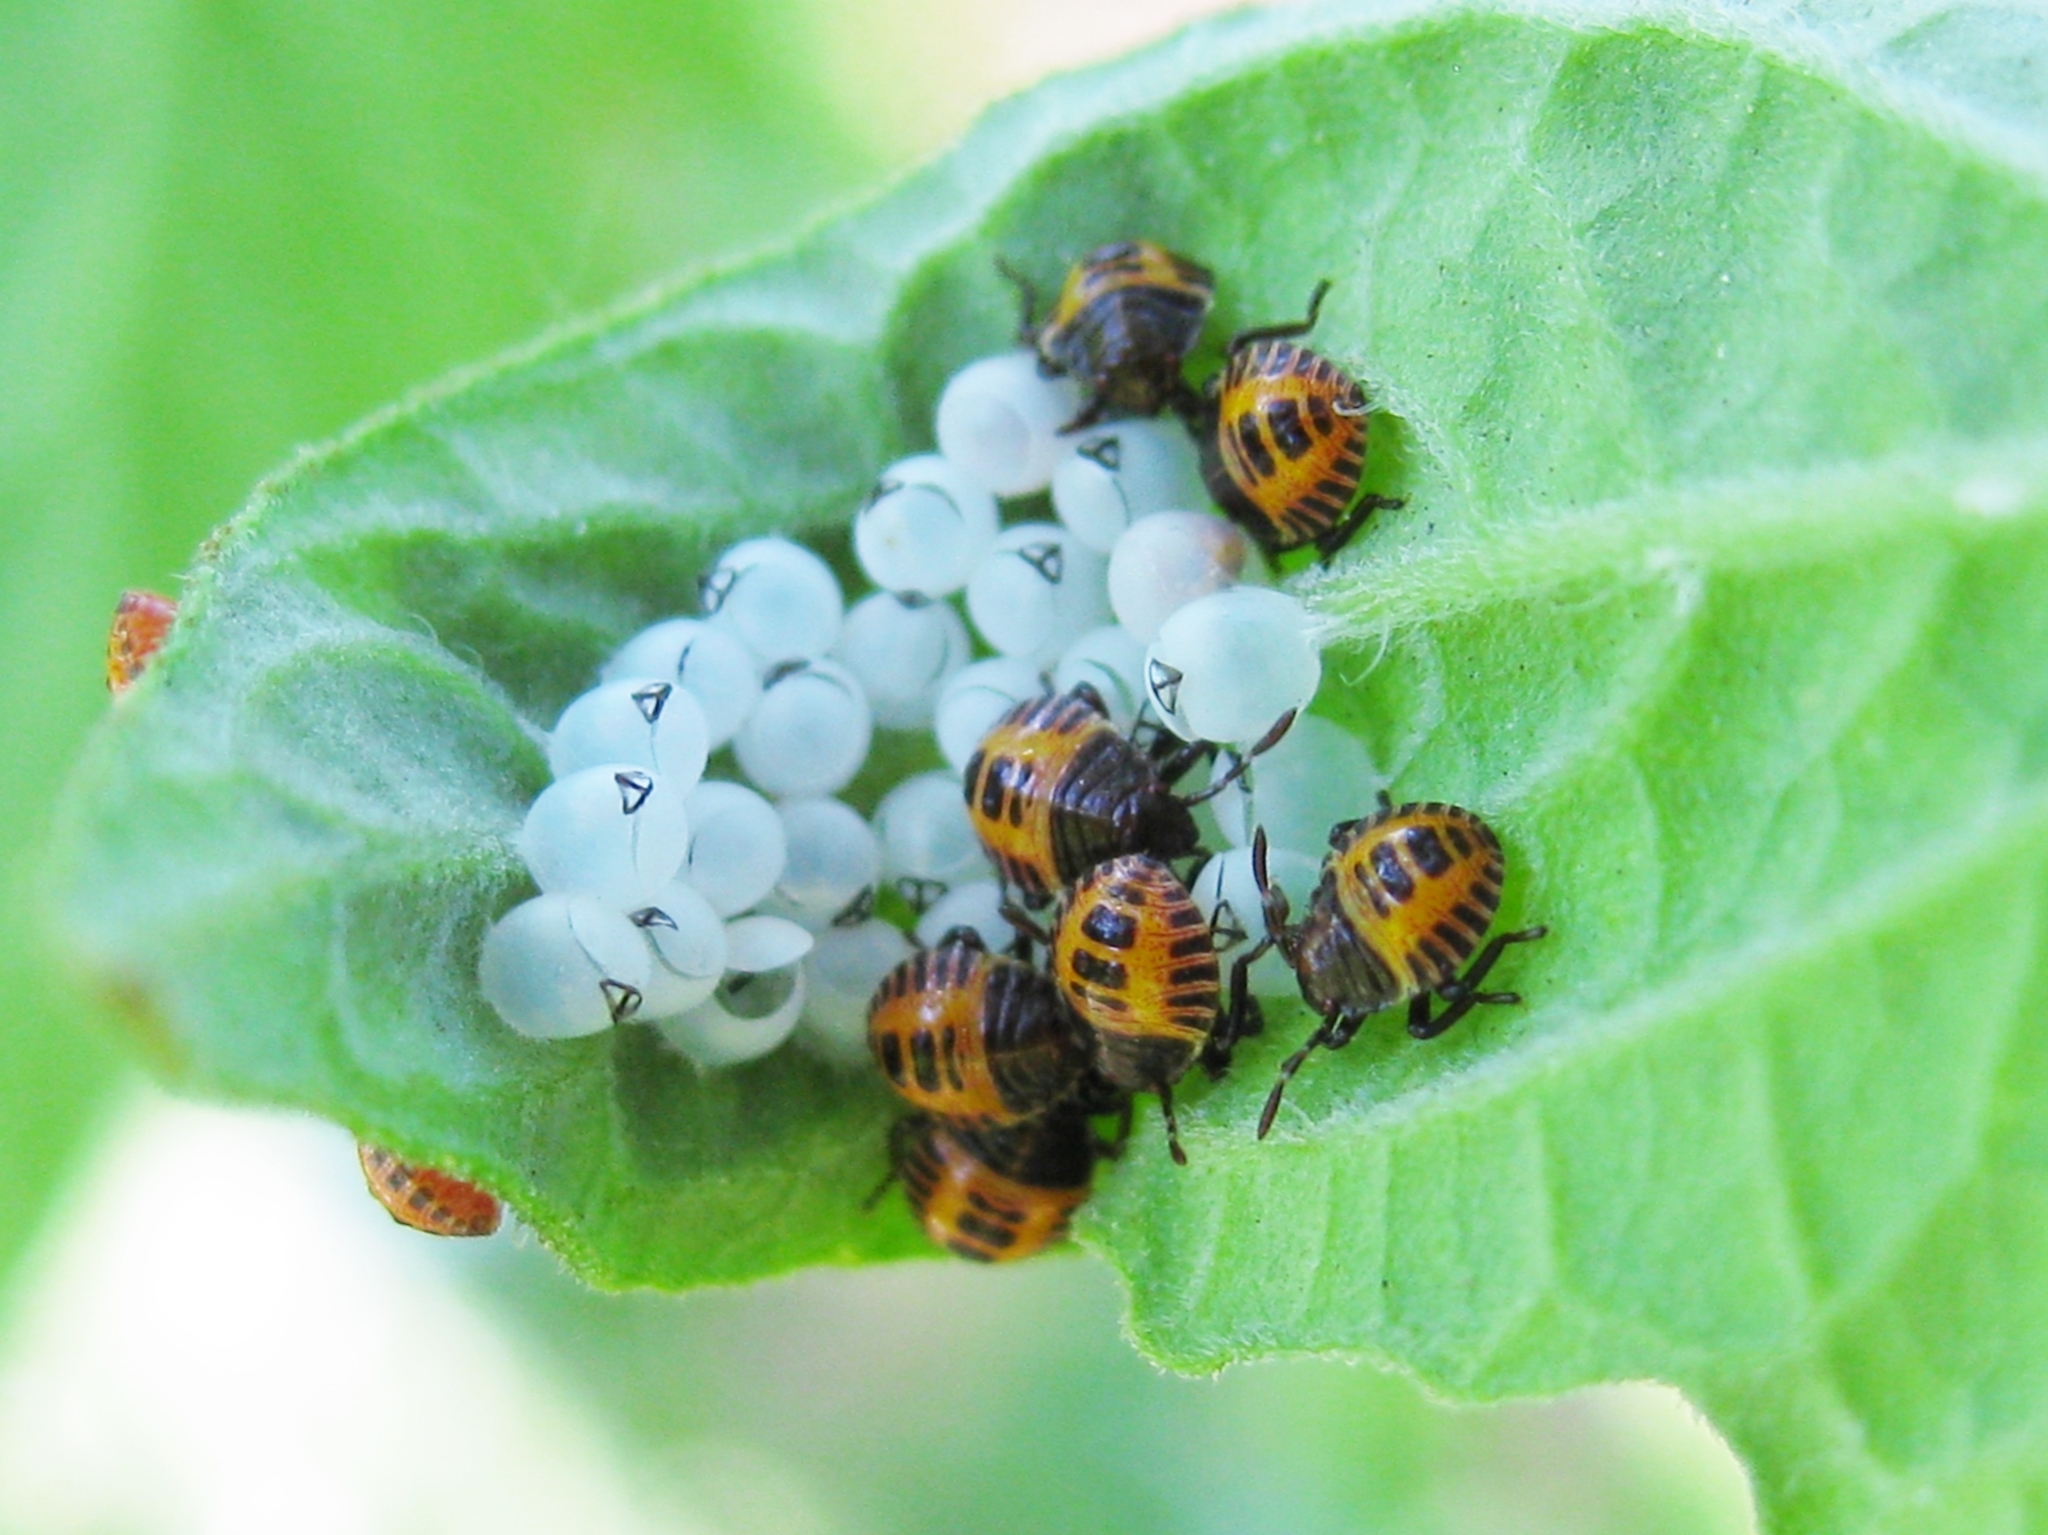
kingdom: Animalia
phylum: Arthropoda
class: Insecta
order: Hemiptera
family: Pentatomidae
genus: Halyomorpha
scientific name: Halyomorpha halys
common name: Brown marmorated stink bug
